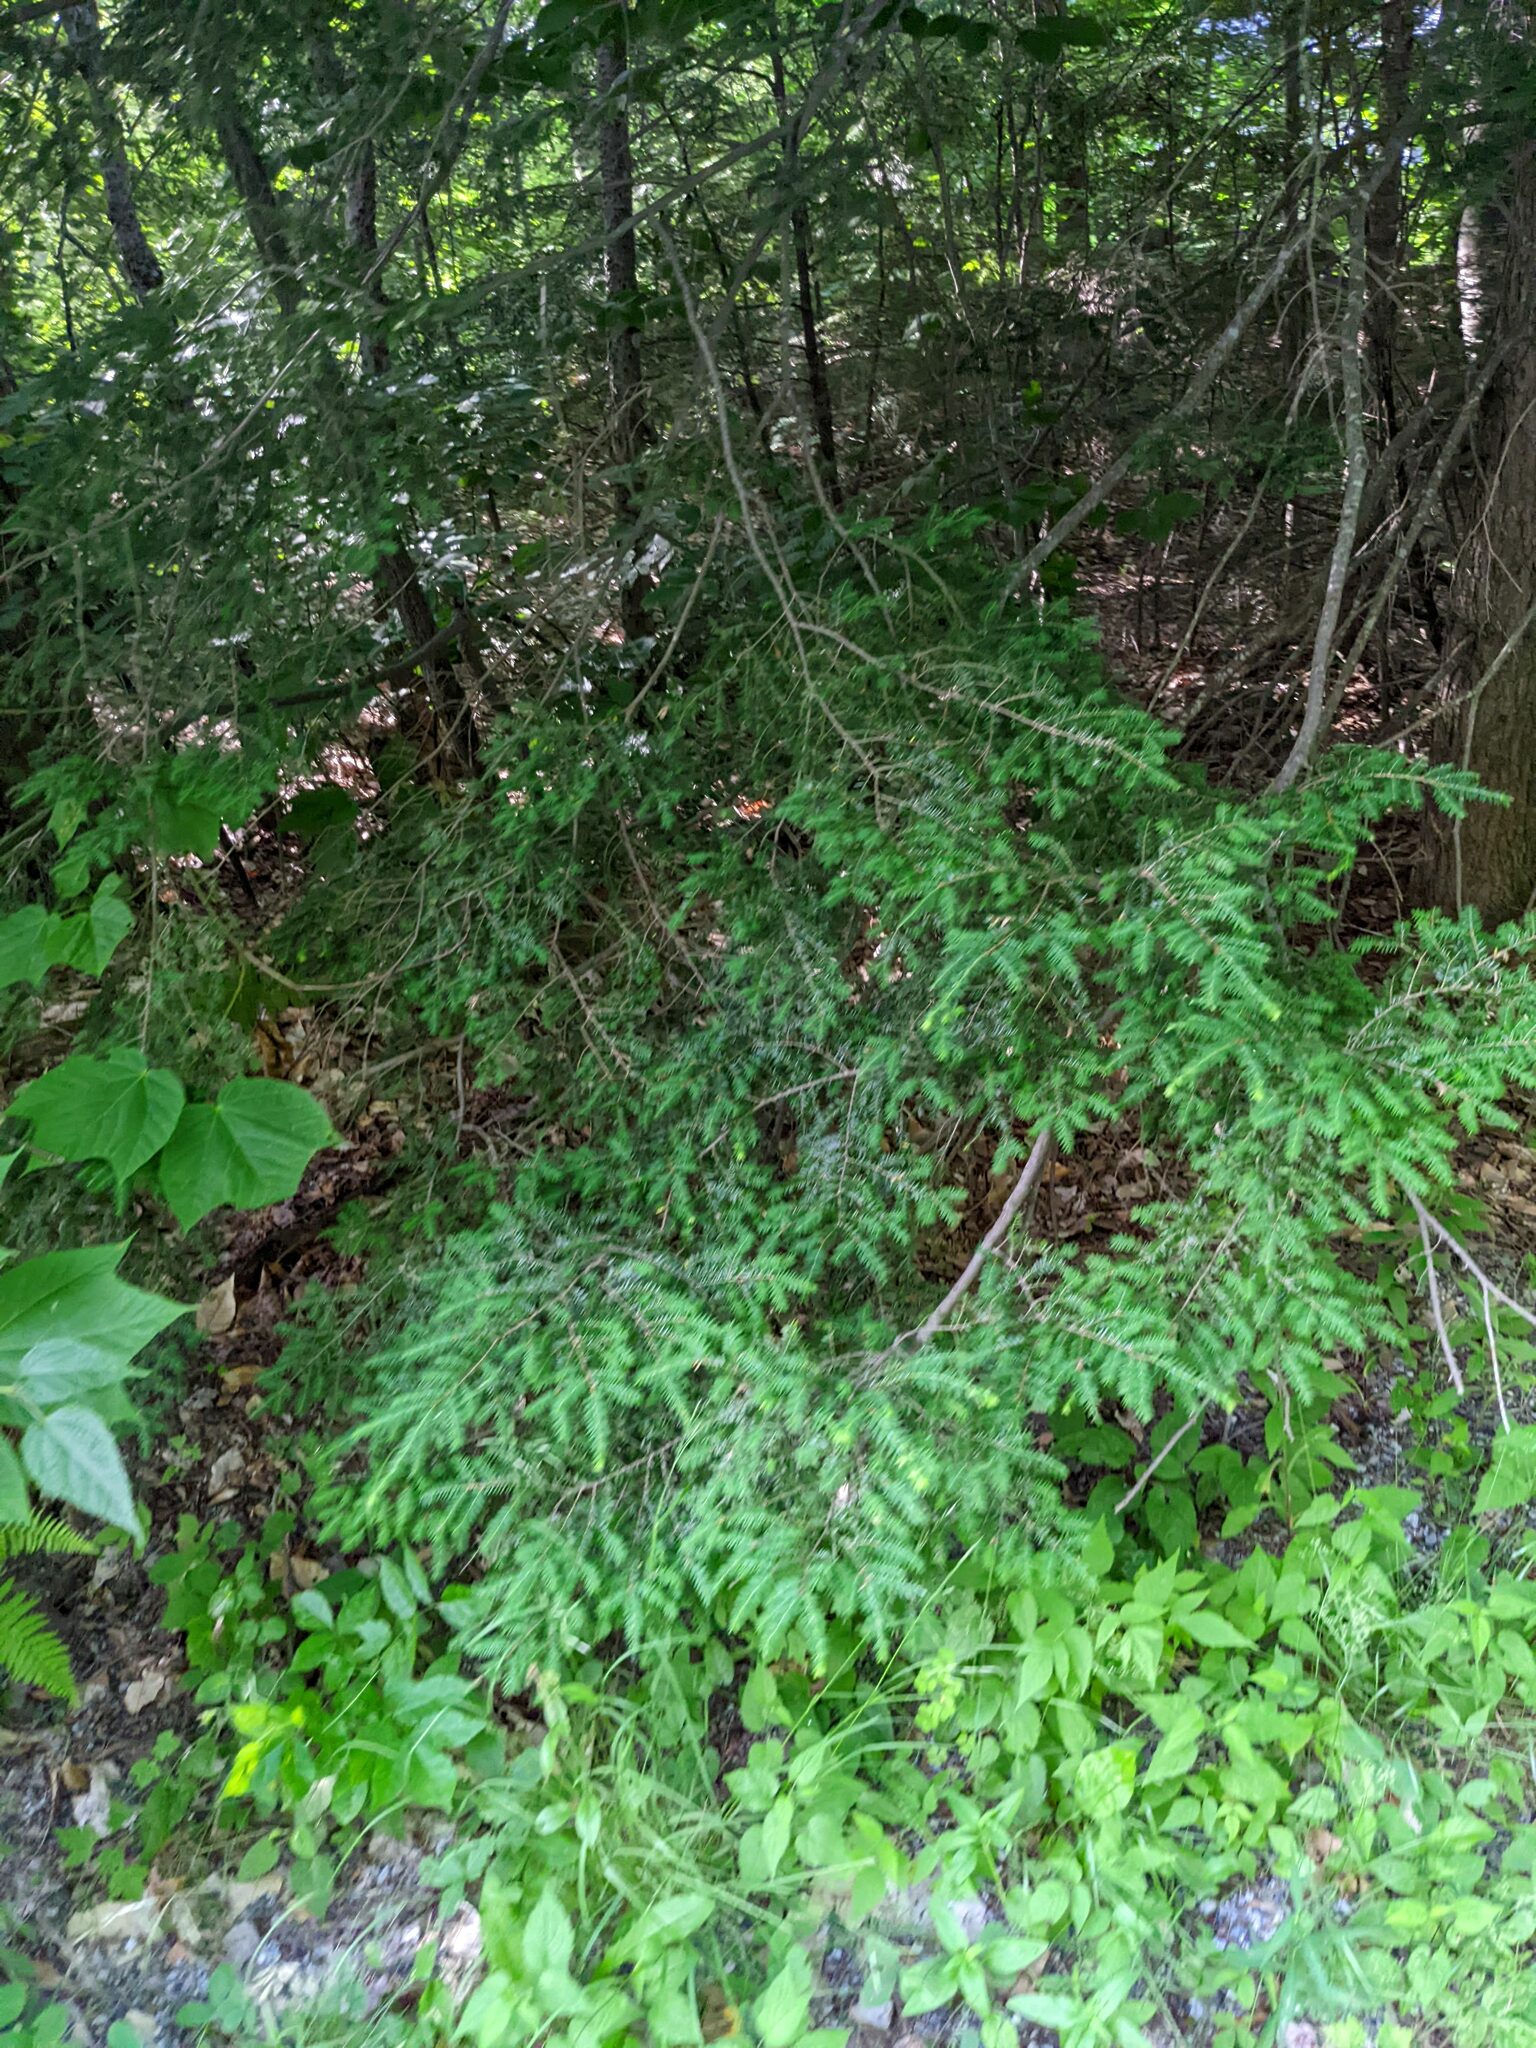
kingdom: Plantae
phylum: Tracheophyta
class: Pinopsida
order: Pinales
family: Pinaceae
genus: Tsuga
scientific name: Tsuga canadensis
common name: Eastern hemlock
